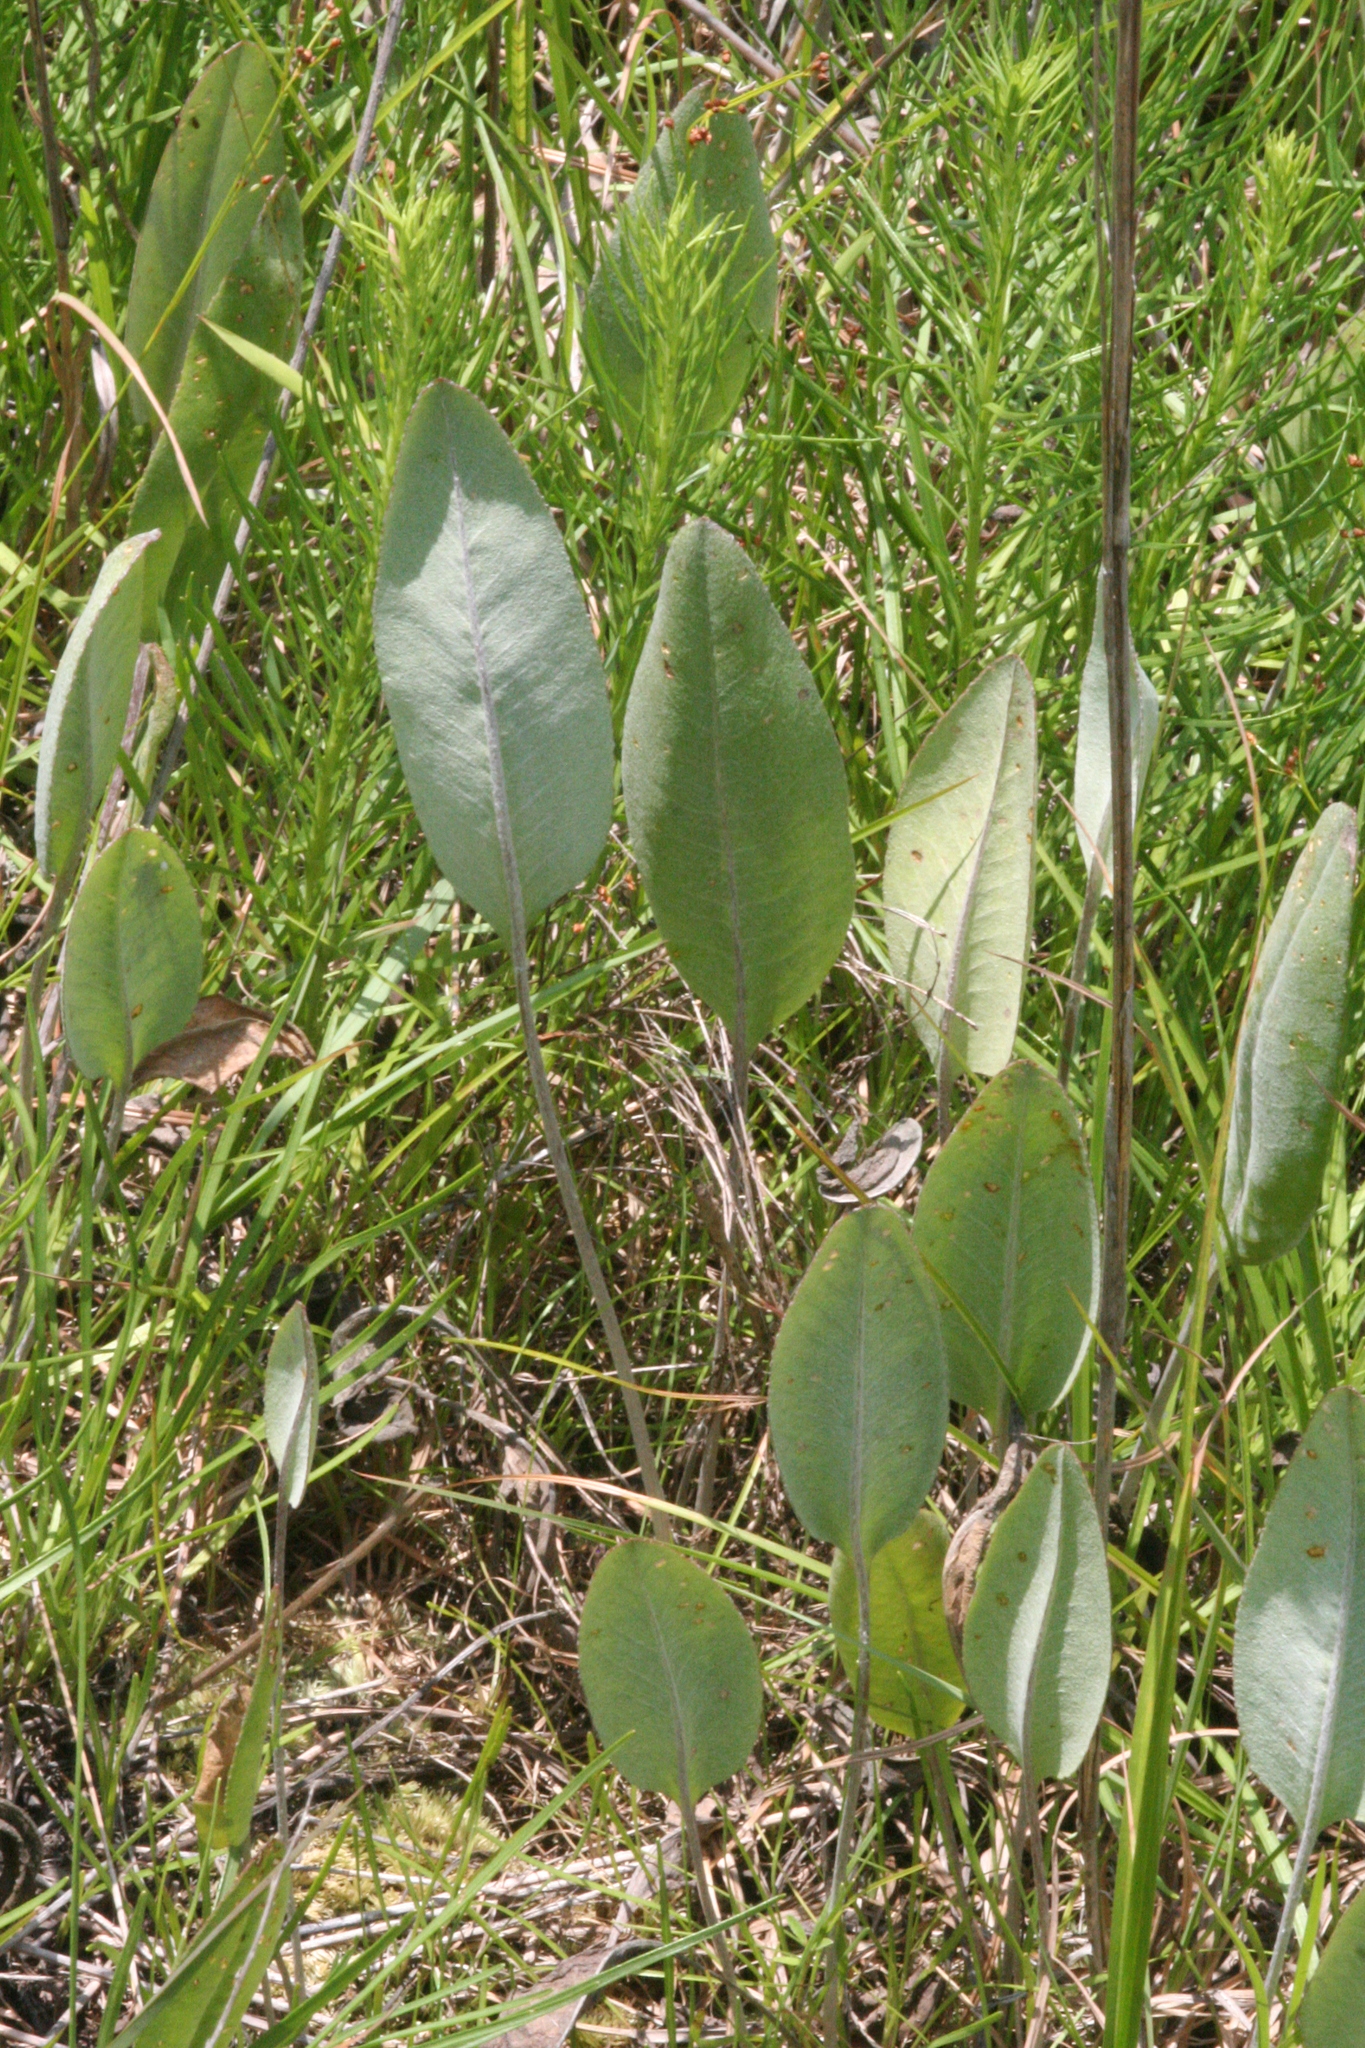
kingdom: Plantae
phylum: Tracheophyta
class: Magnoliopsida
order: Asterales
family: Asteraceae
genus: Packera
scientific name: Packera dubia
